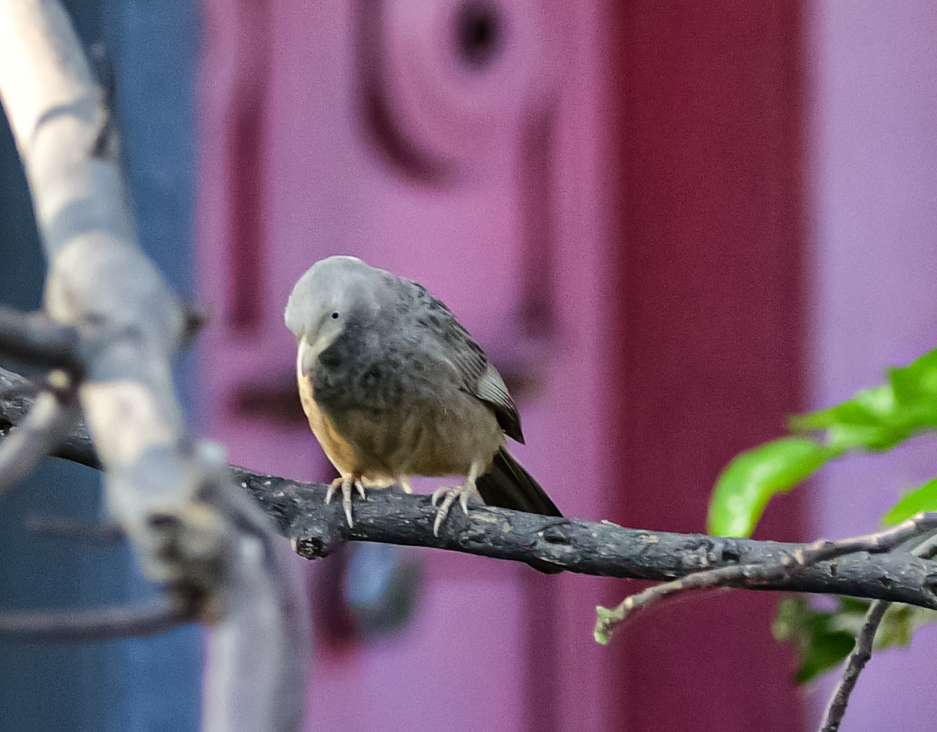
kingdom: Animalia
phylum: Chordata
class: Aves
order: Passeriformes
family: Leiothrichidae
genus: Turdoides
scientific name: Turdoides affinis
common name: Yellow-billed babbler
